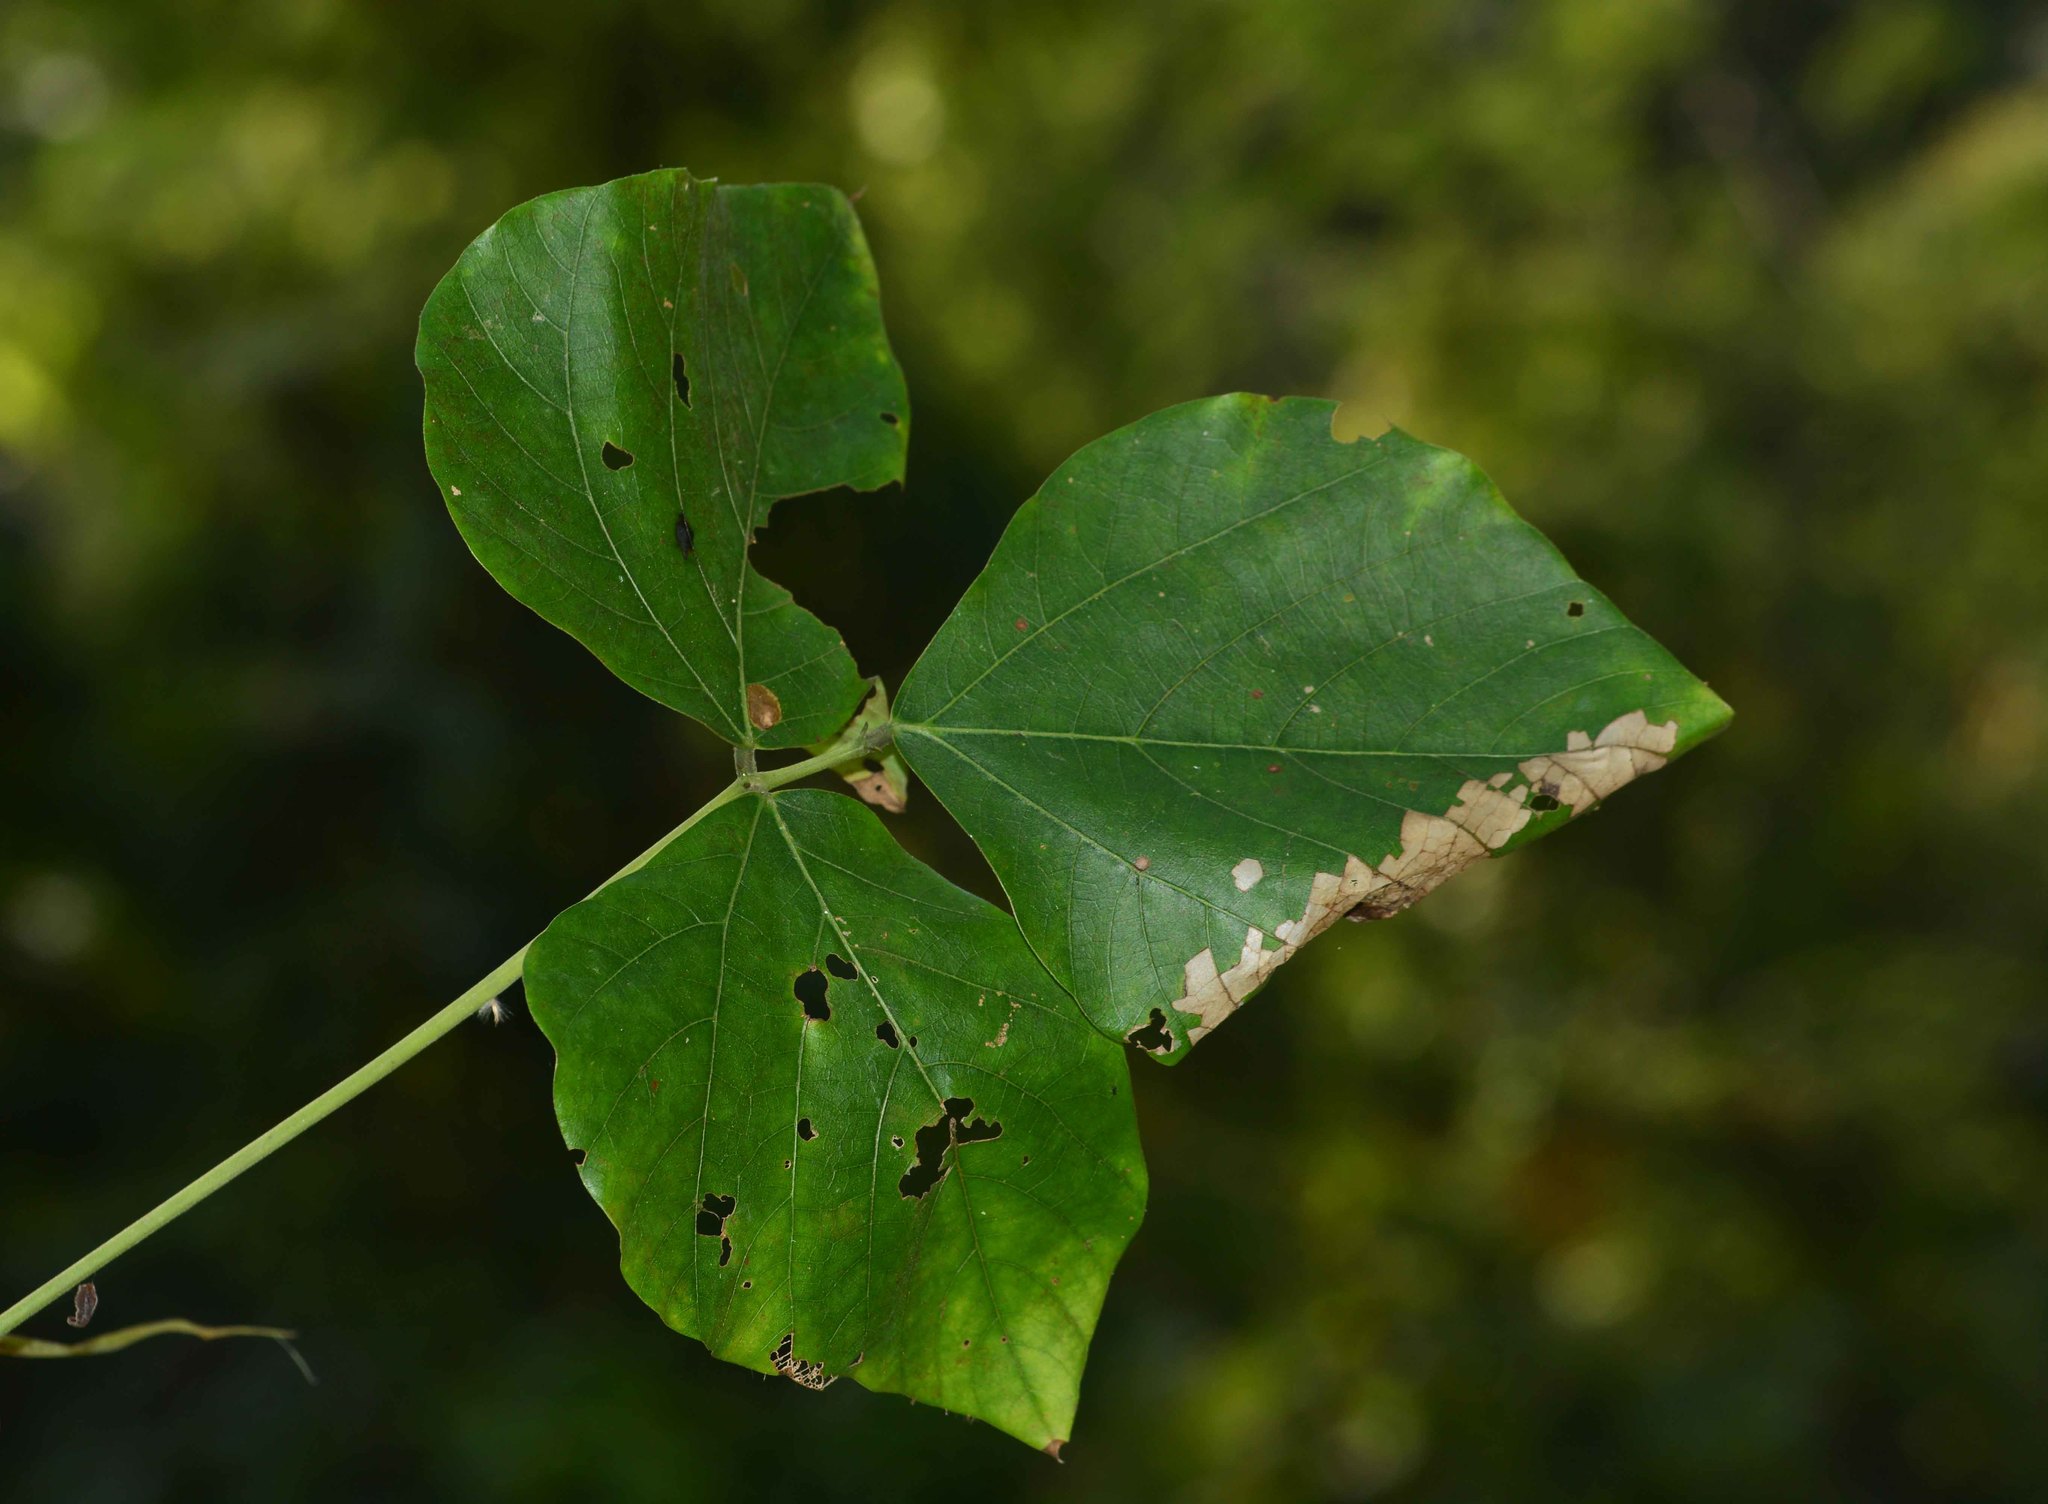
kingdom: Plantae
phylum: Tracheophyta
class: Magnoliopsida
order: Fabales
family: Fabaceae
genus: Mucuna
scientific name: Mucuna bracteata
